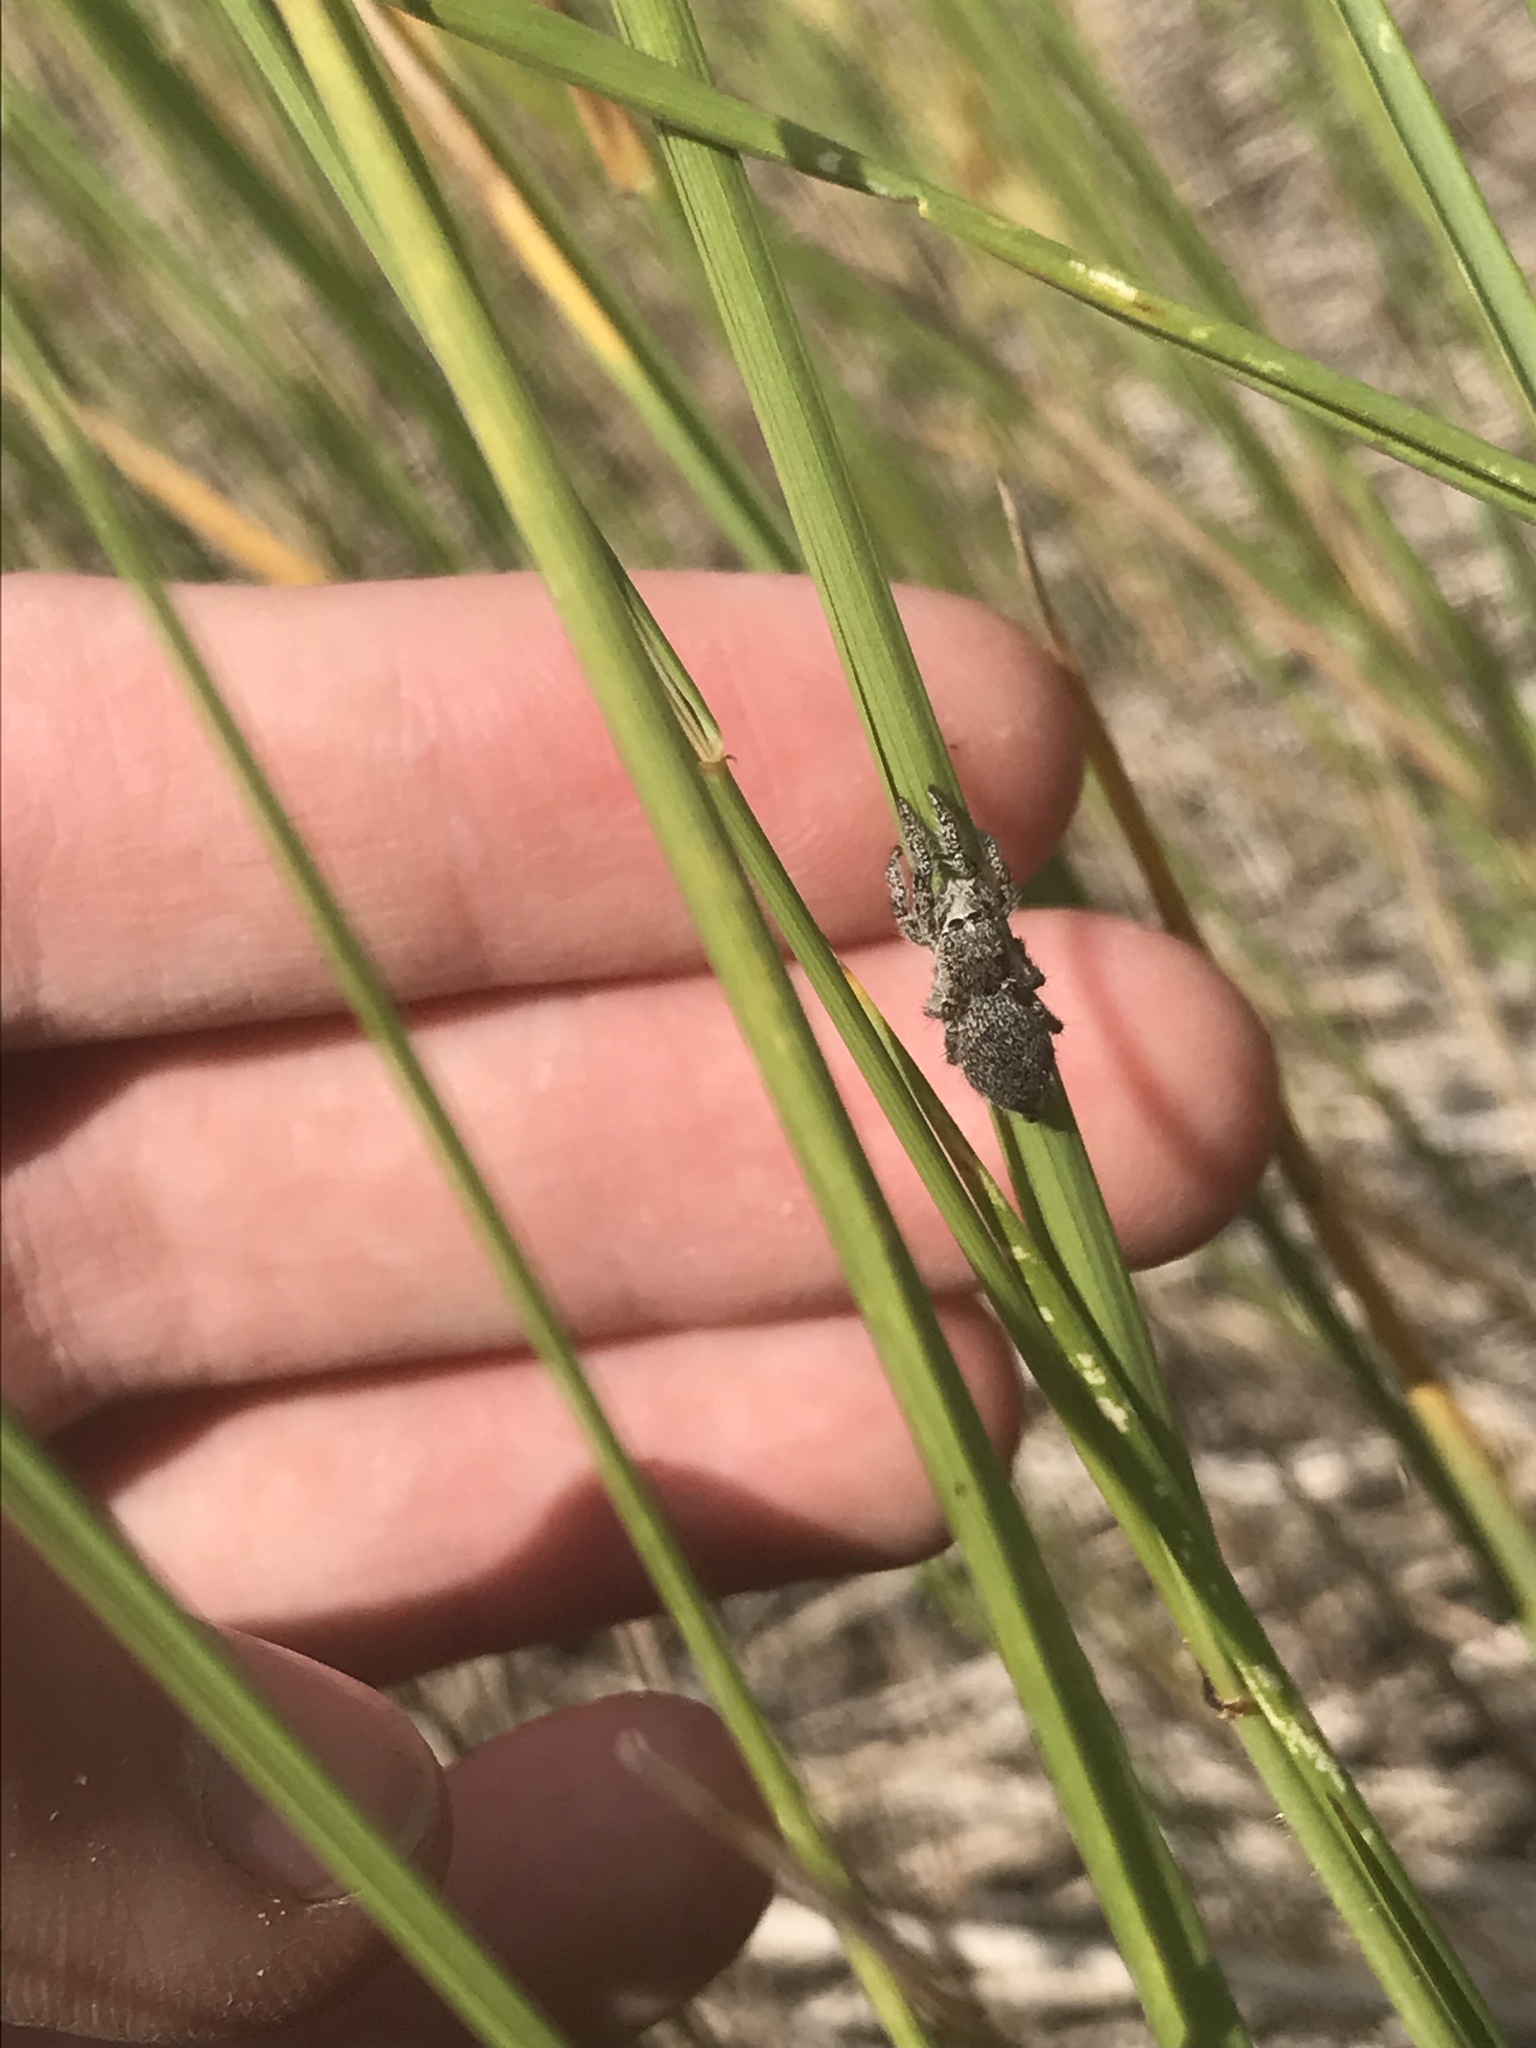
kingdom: Animalia
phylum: Arthropoda
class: Arachnida
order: Araneae
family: Salticidae
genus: Habronattus
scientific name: Habronattus hirsutus
